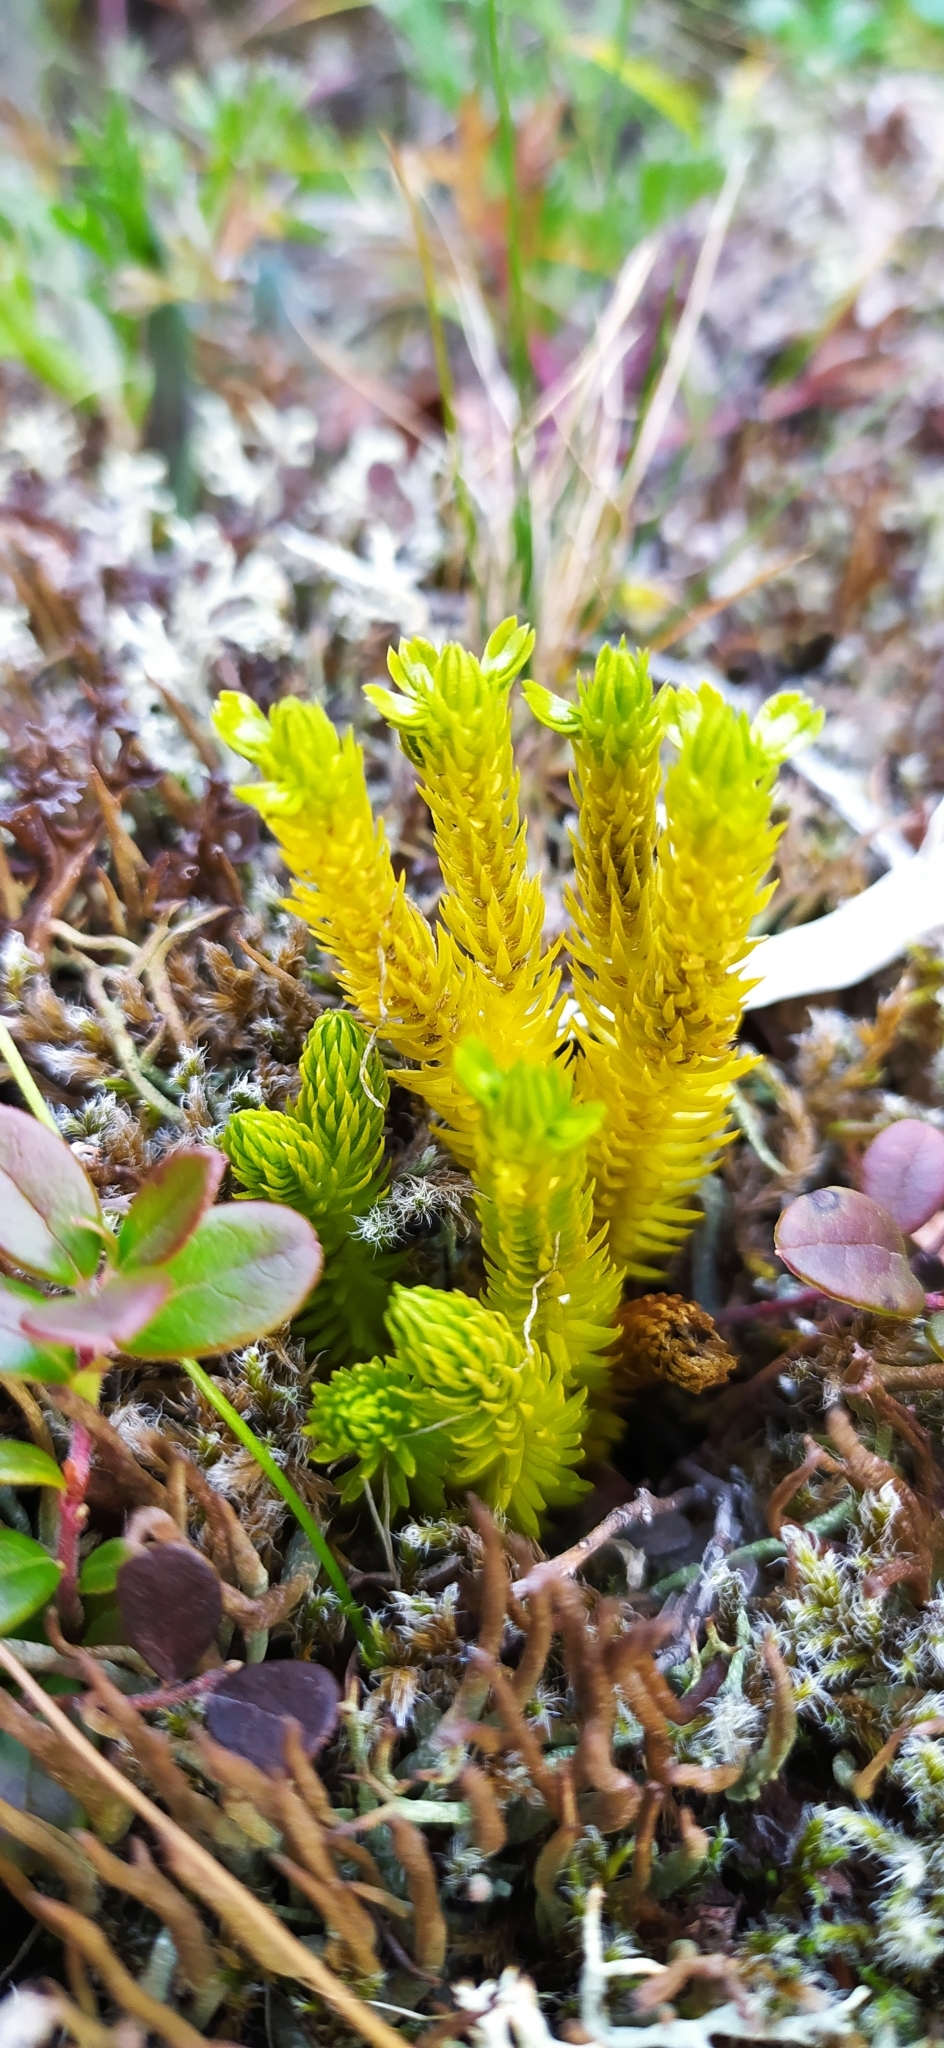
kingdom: Plantae
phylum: Tracheophyta
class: Lycopodiopsida
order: Lycopodiales
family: Lycopodiaceae
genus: Huperzia
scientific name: Huperzia selago
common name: Northern firmoss
